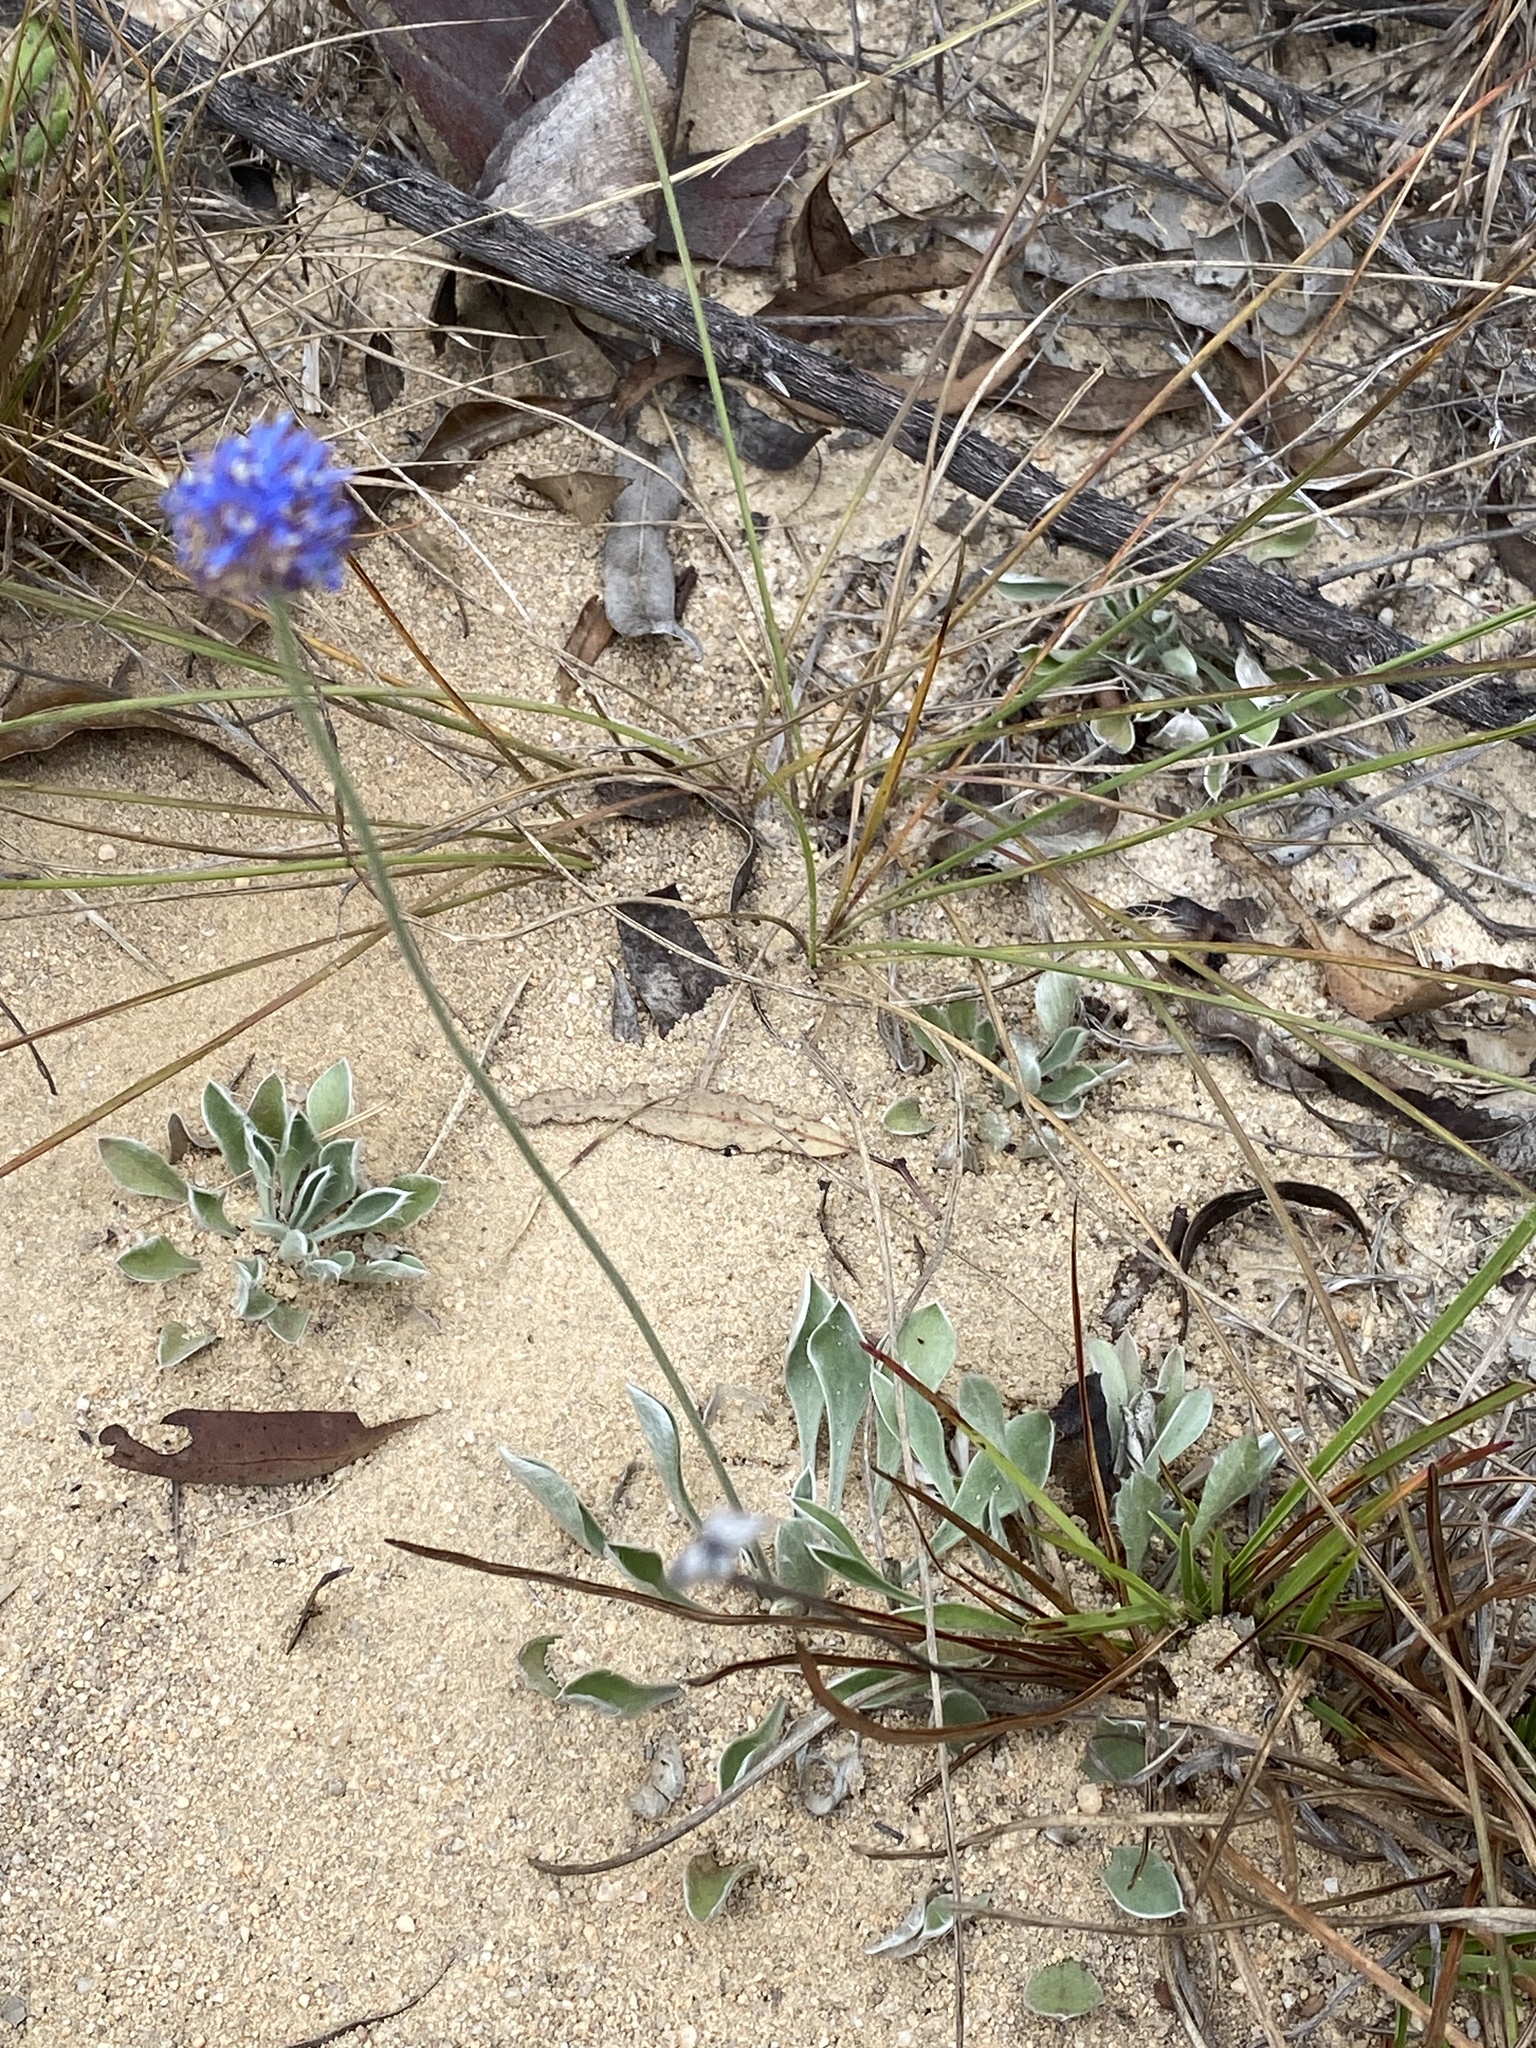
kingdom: Plantae
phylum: Tracheophyta
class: Magnoliopsida
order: Asterales
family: Goodeniaceae
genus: Brunonia
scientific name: Brunonia australis
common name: Blue pincushion
